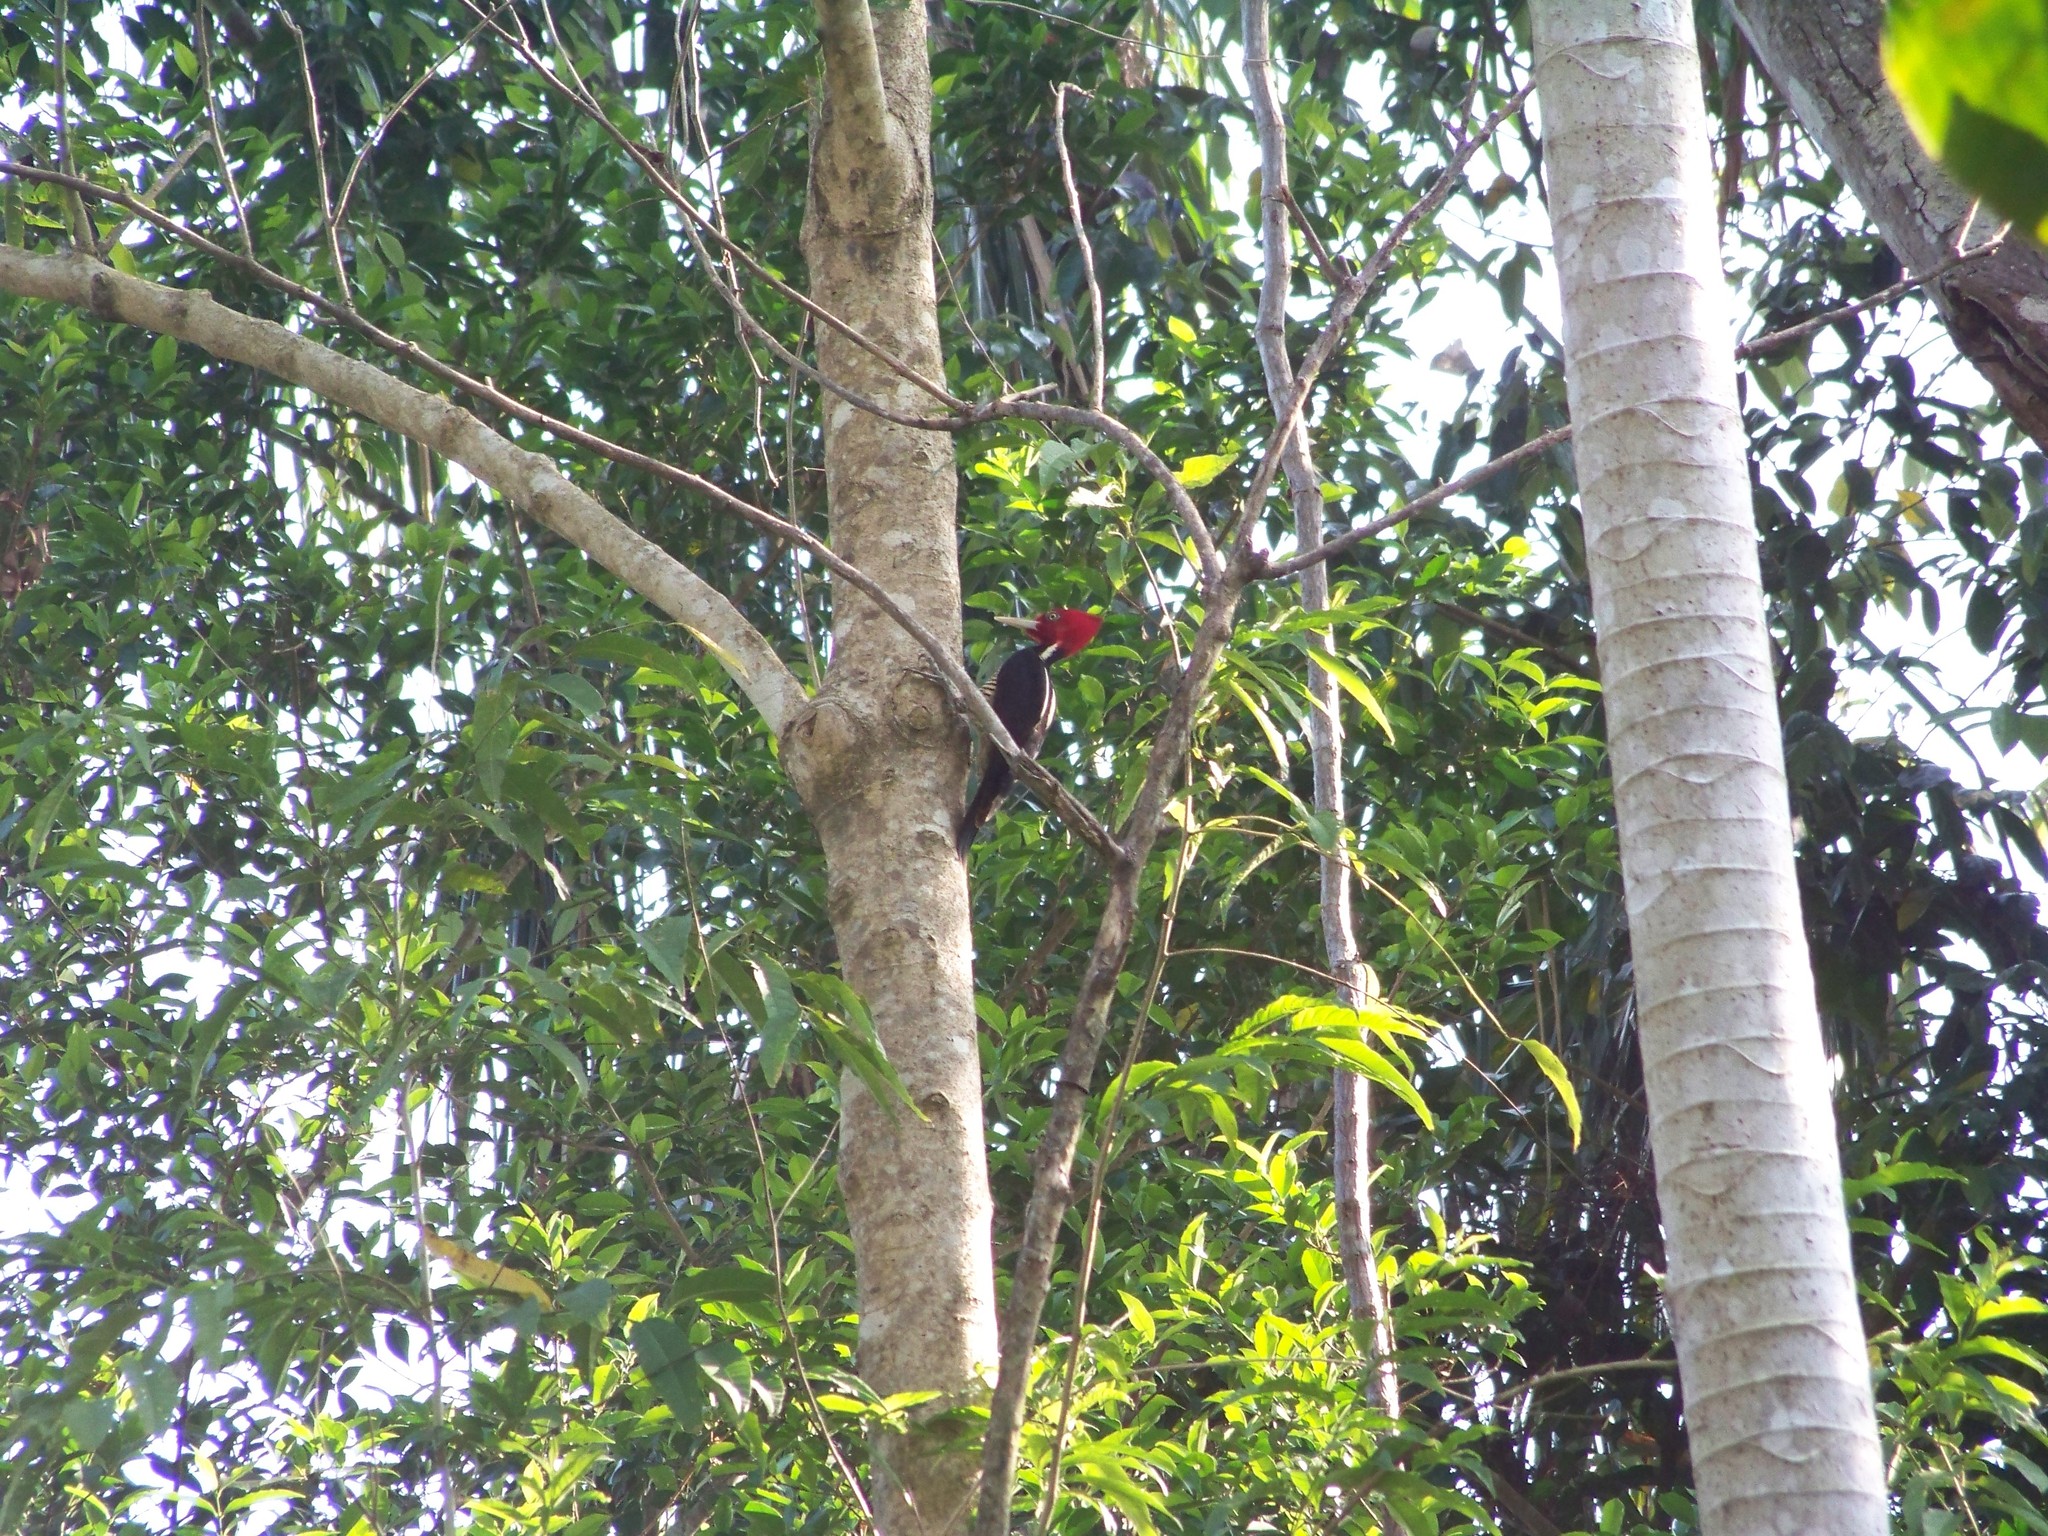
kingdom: Animalia
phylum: Chordata
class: Aves
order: Piciformes
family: Picidae
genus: Campephilus
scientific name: Campephilus guatemalensis
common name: Pale-billed woodpecker
